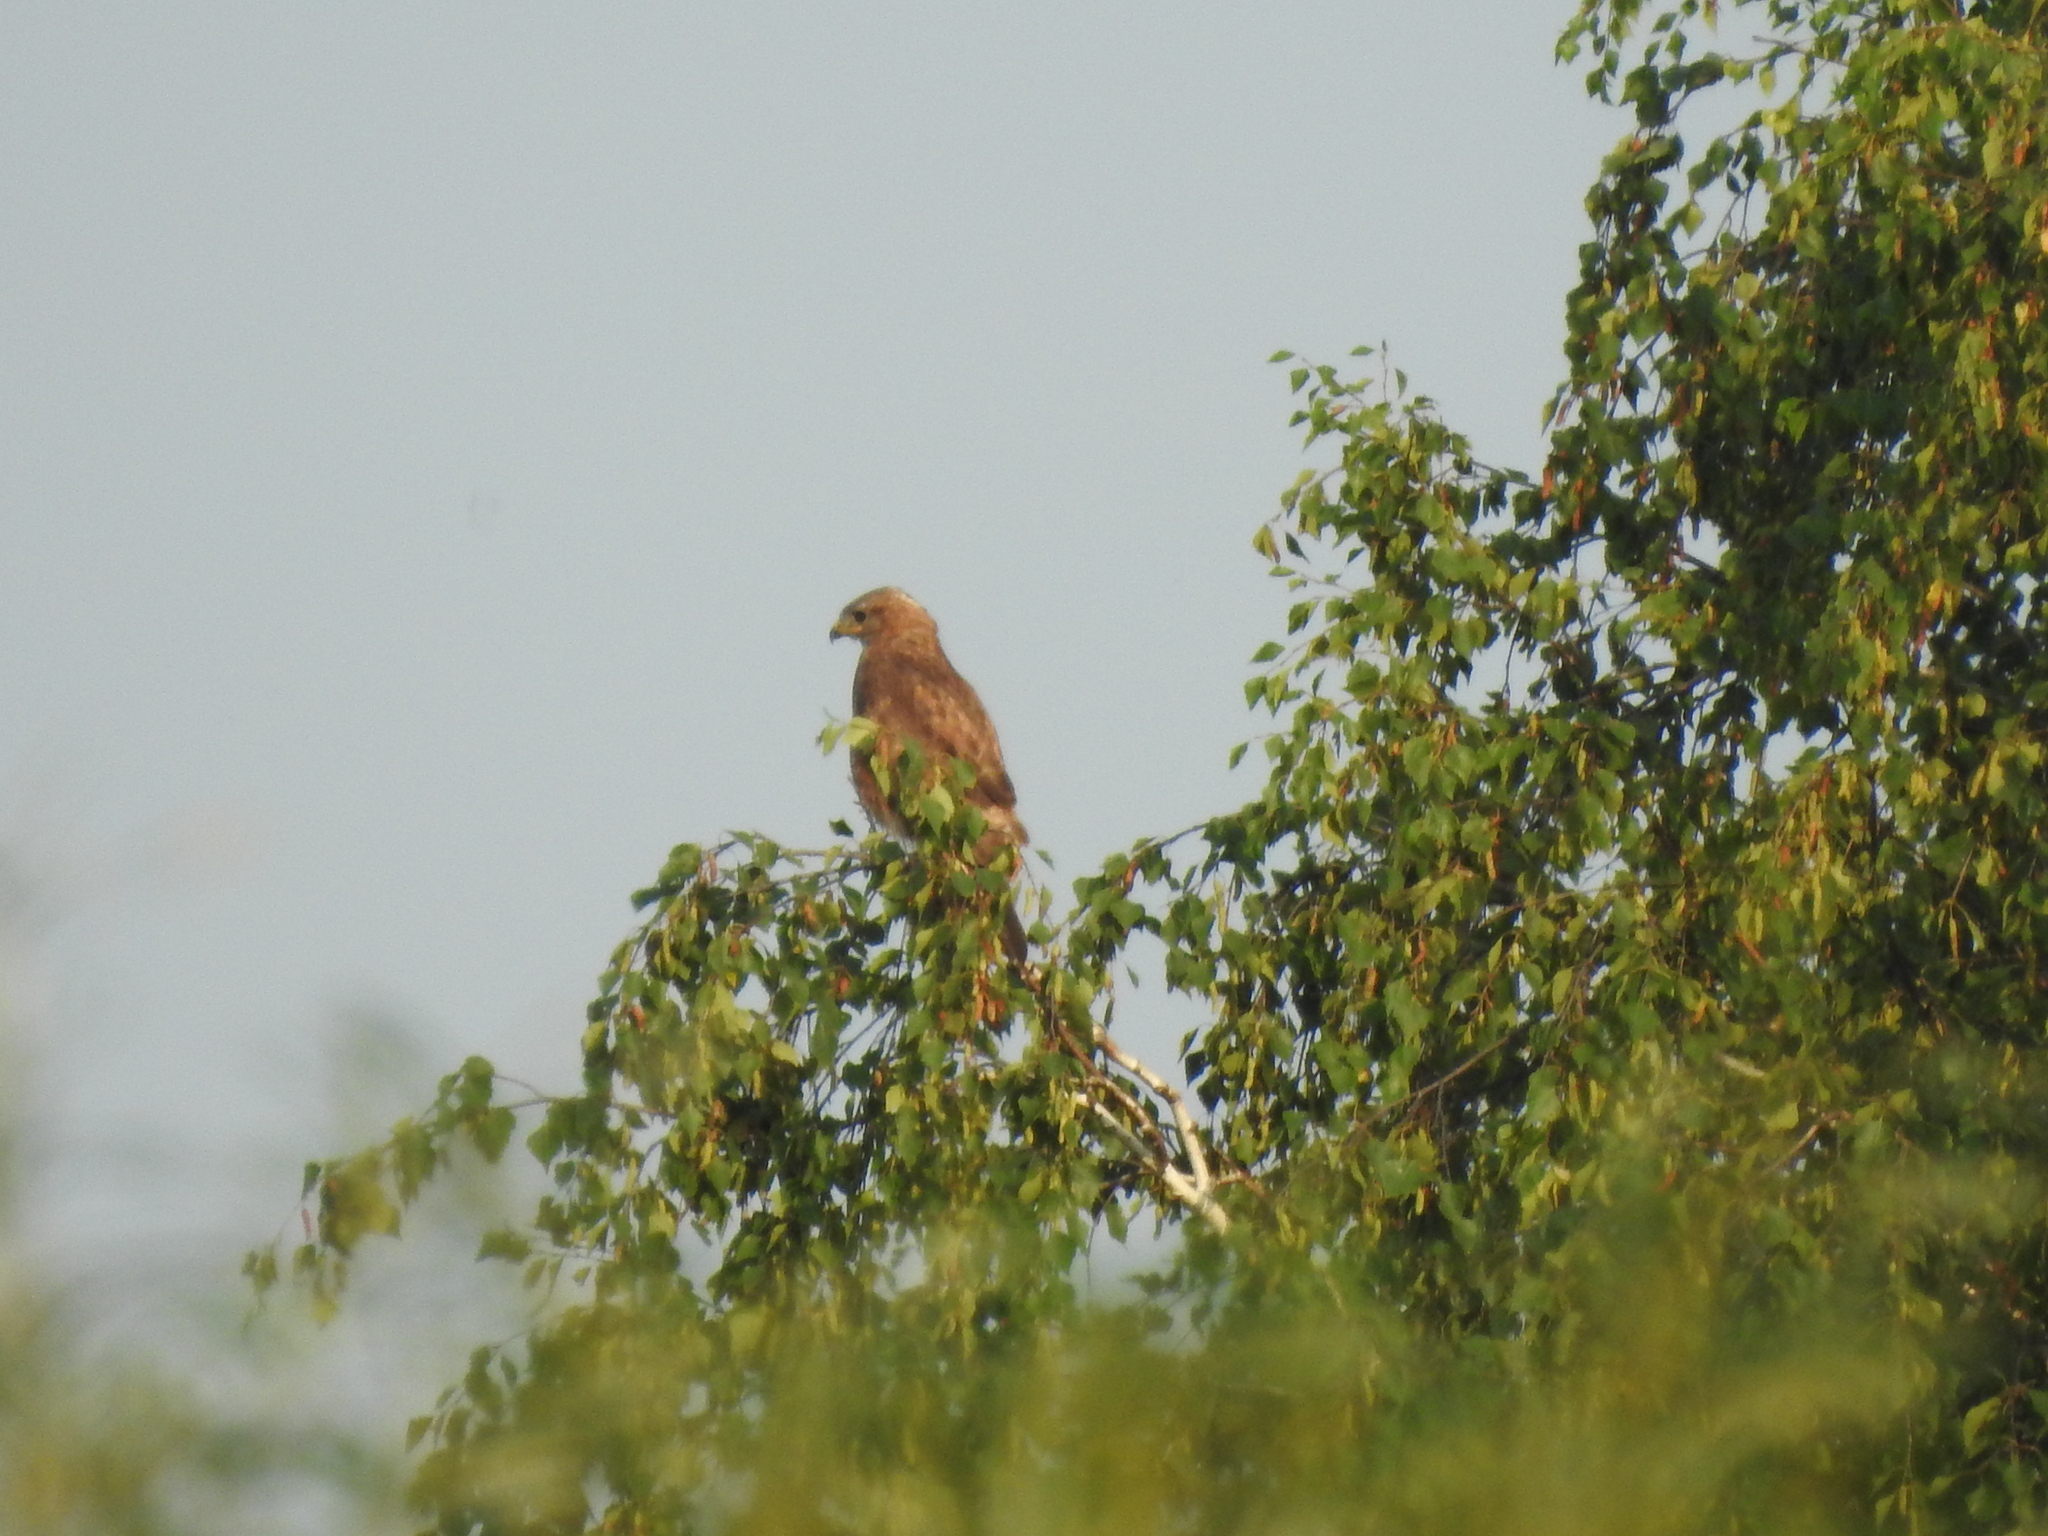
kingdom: Animalia
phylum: Chordata
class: Aves
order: Accipitriformes
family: Accipitridae
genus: Buteo
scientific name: Buteo buteo
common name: Common buzzard
